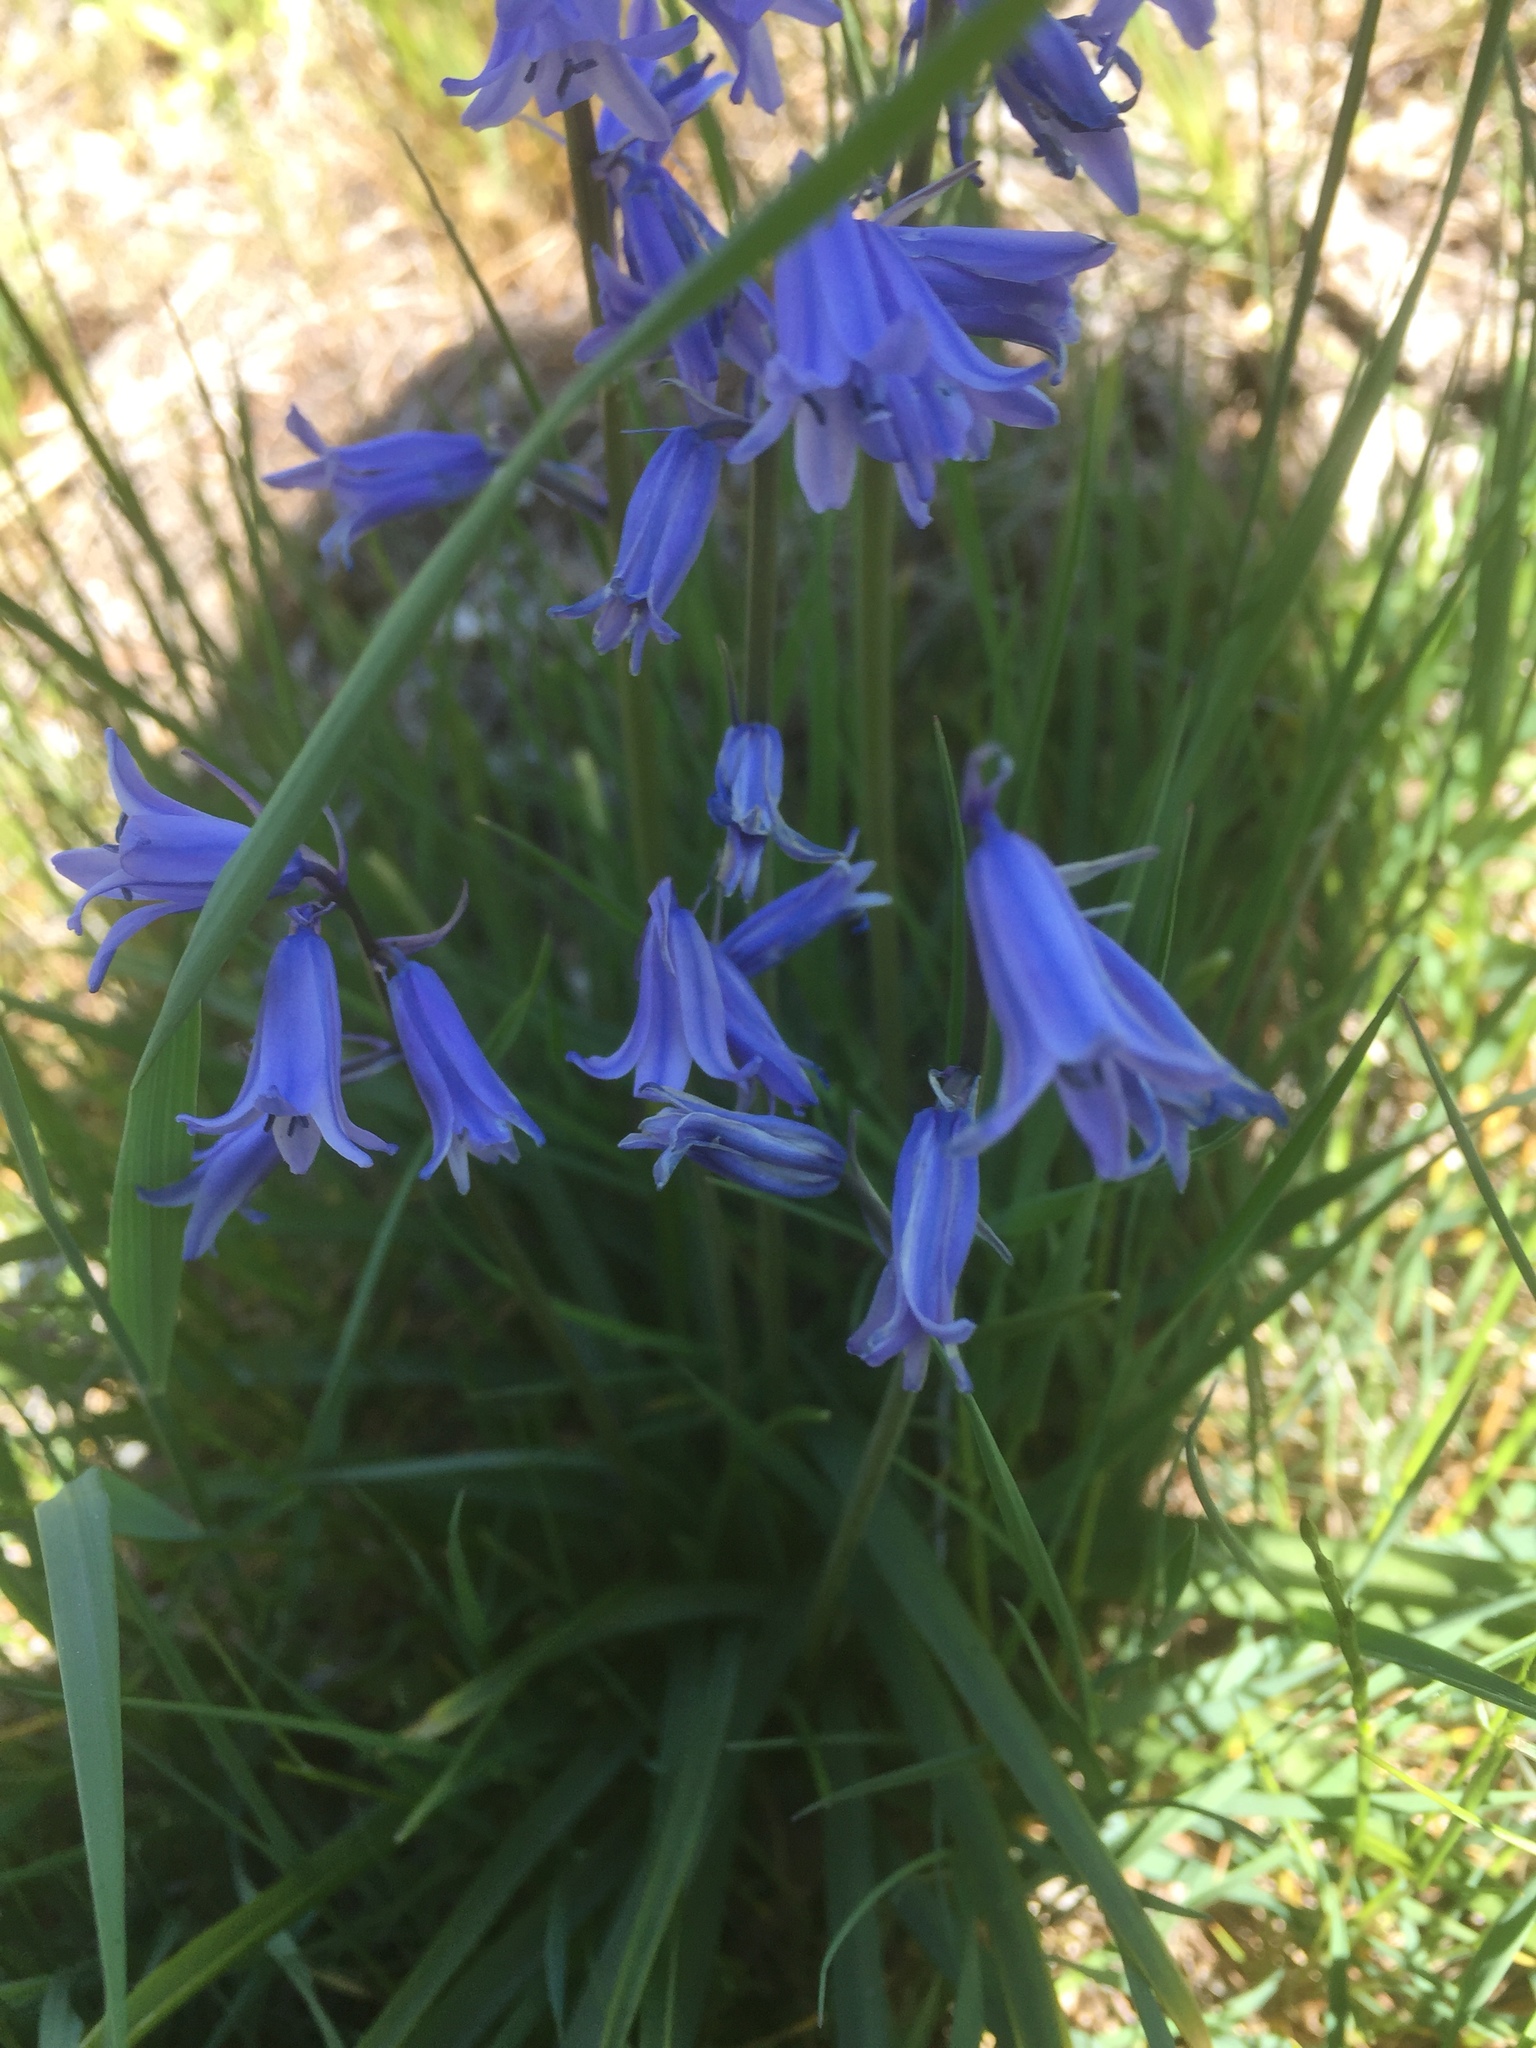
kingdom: Plantae
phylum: Tracheophyta
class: Liliopsida
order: Asparagales
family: Asparagaceae
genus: Hyacinthoides
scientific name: Hyacinthoides hispanica
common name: Spanish bluebell
